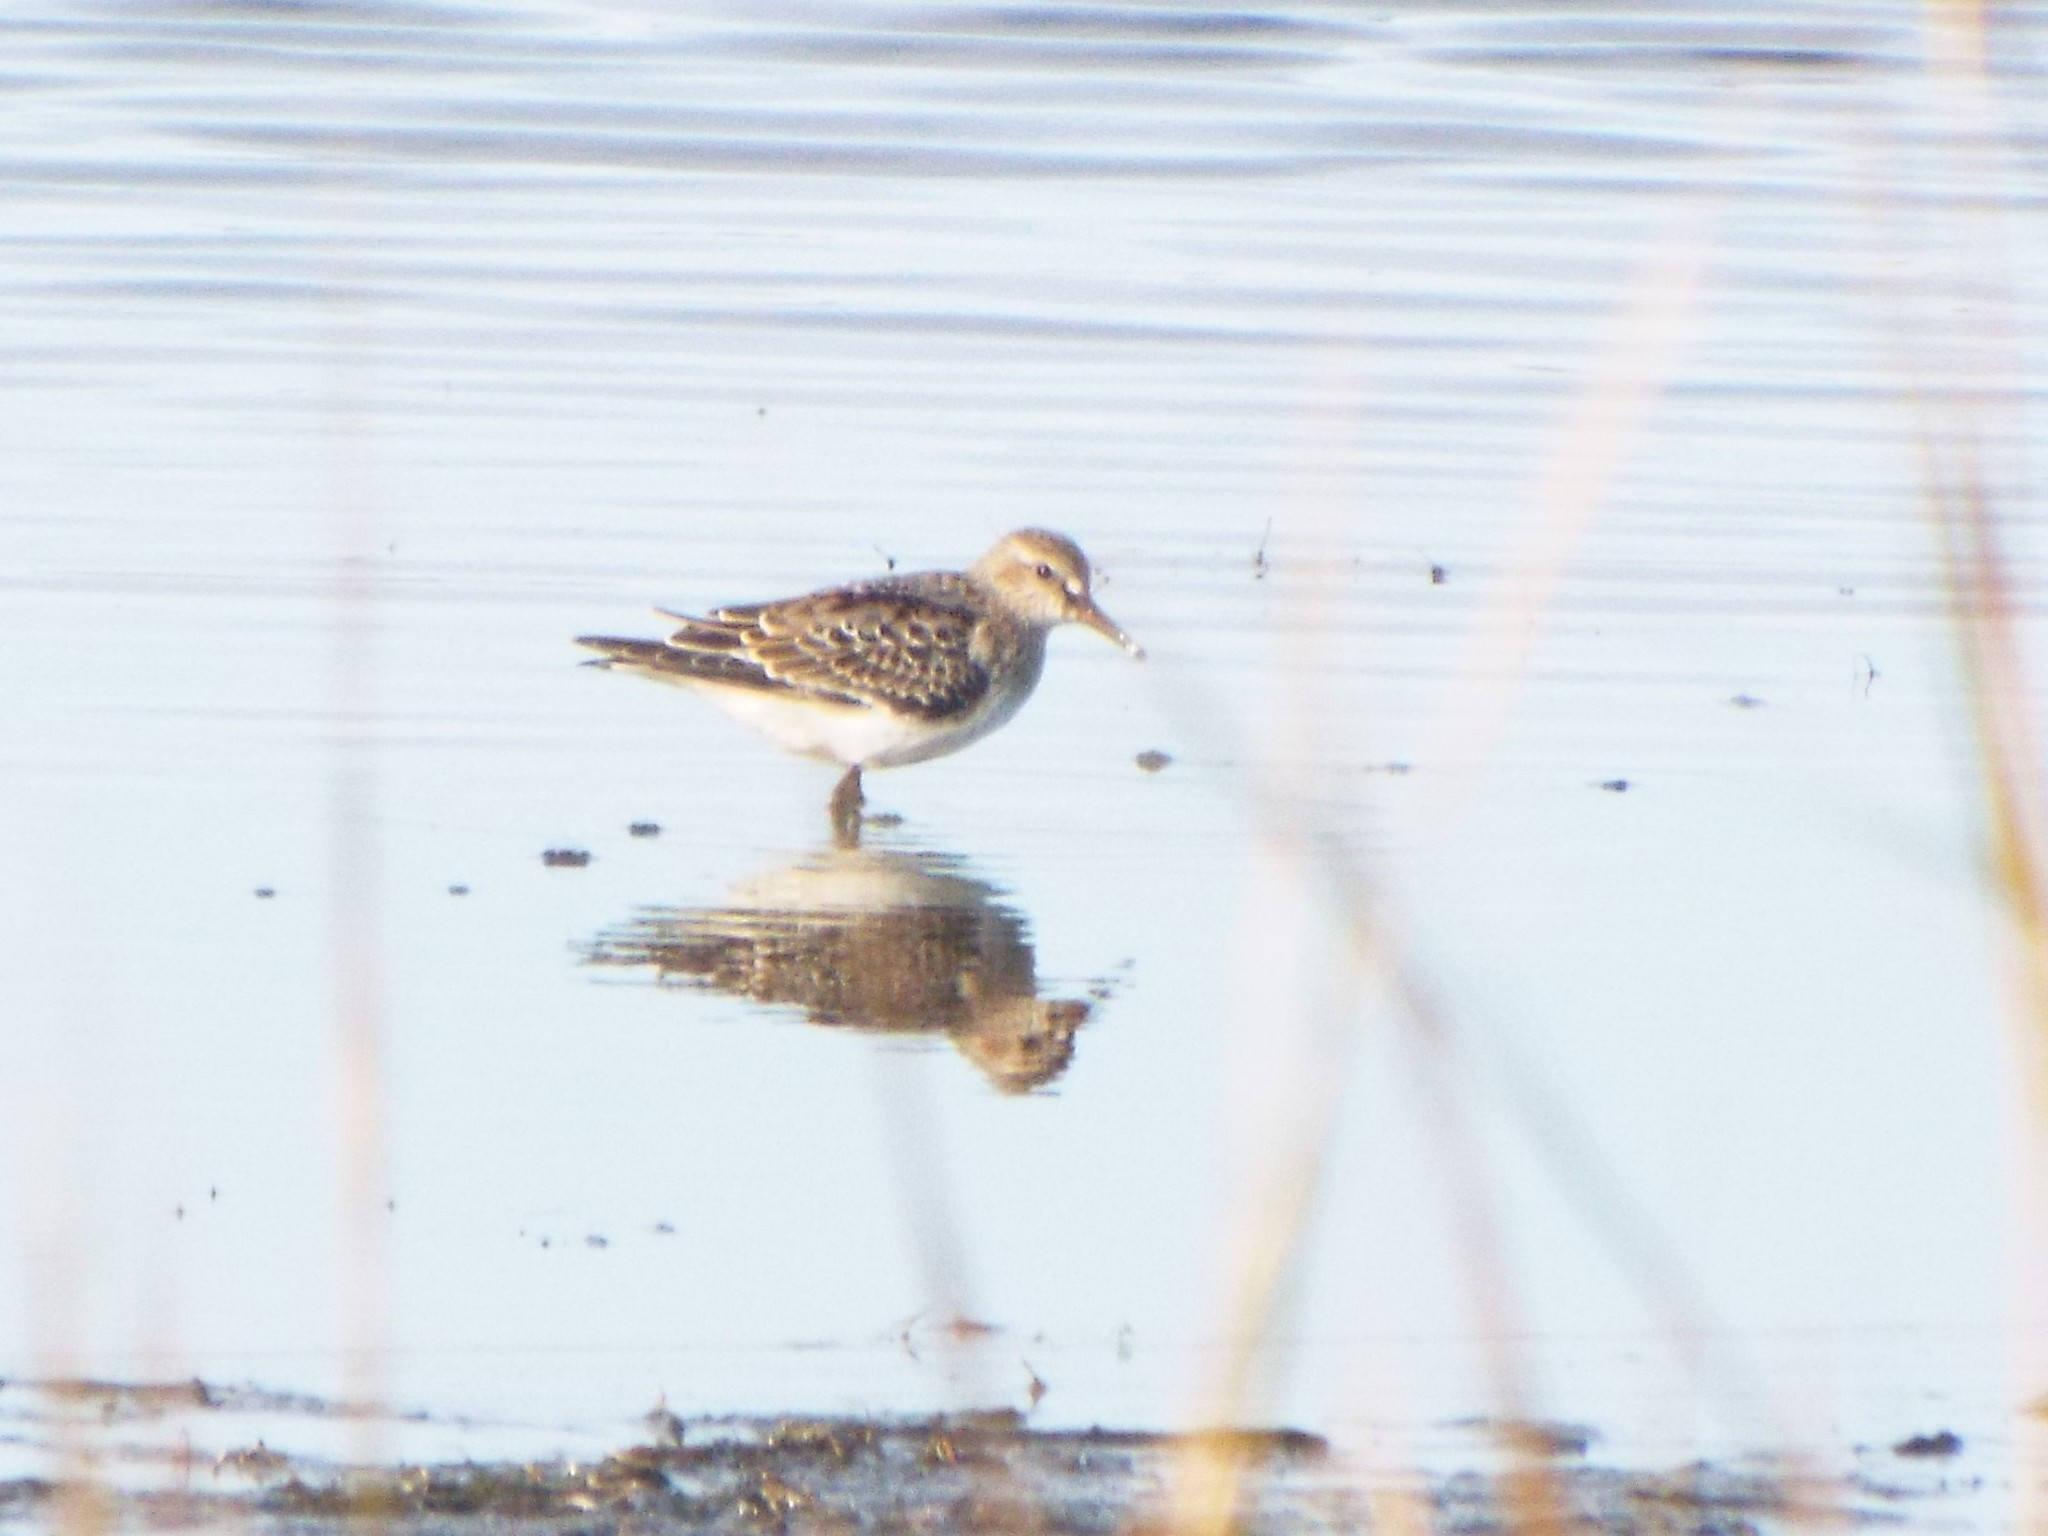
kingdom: Animalia
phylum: Chordata
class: Aves
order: Charadriiformes
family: Scolopacidae
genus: Calidris
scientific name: Calidris fuscicollis
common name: White-rumped sandpiper
